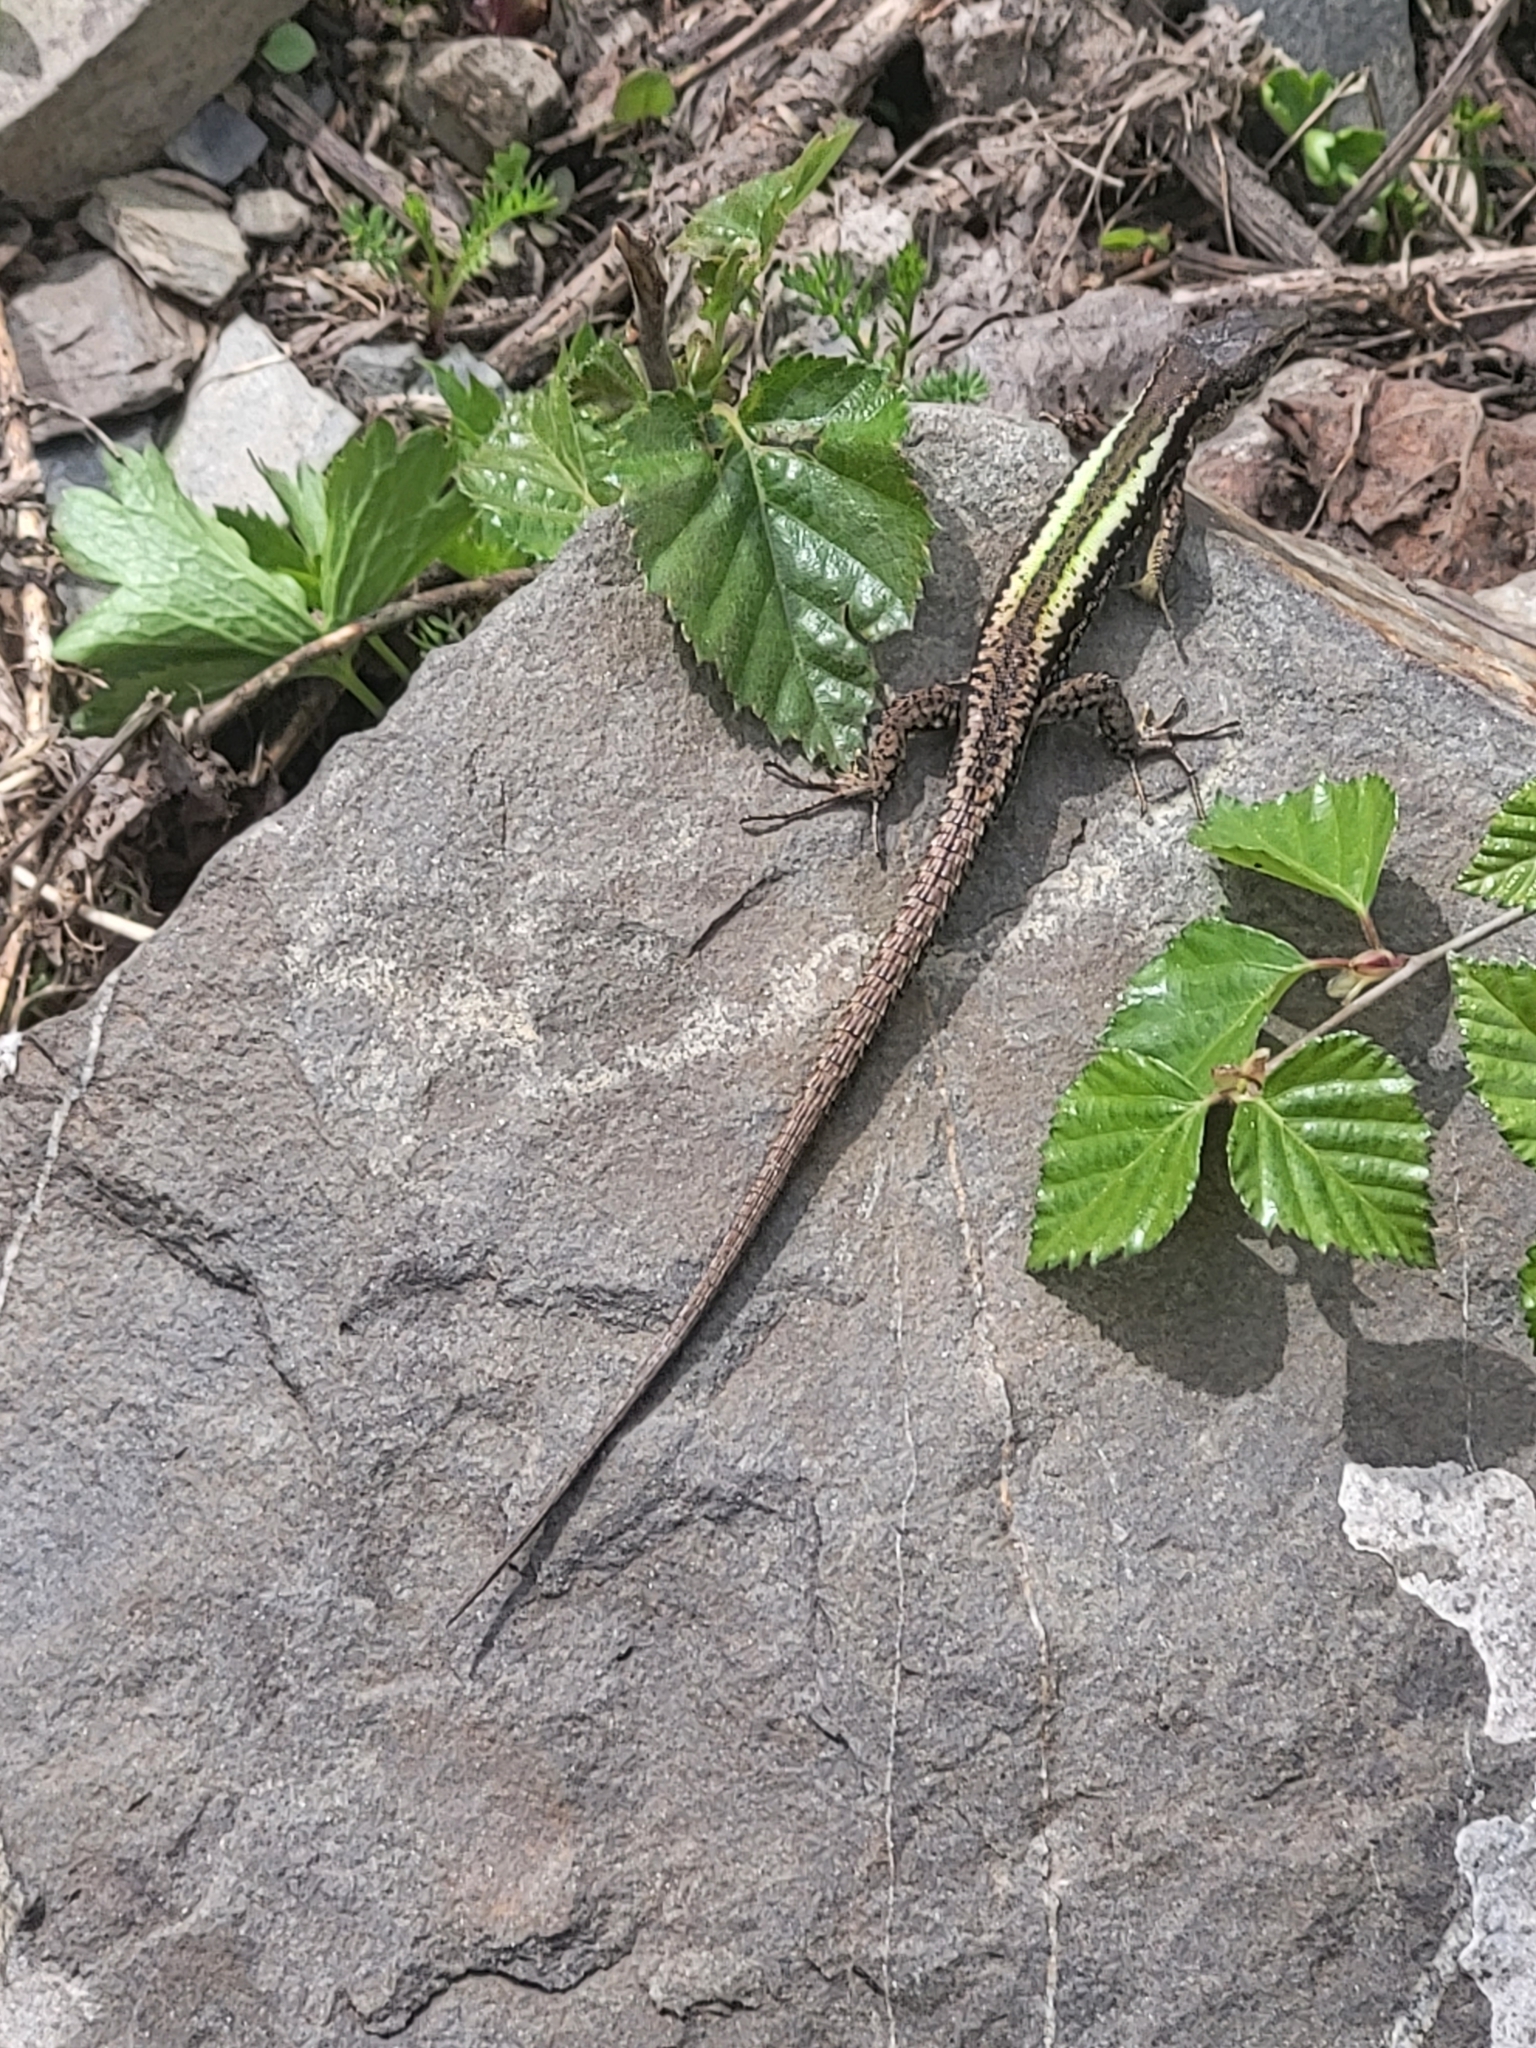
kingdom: Animalia
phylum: Chordata
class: Squamata
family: Lacertidae
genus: Darevskia
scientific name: Darevskia caucasica
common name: Caucasian llzard
